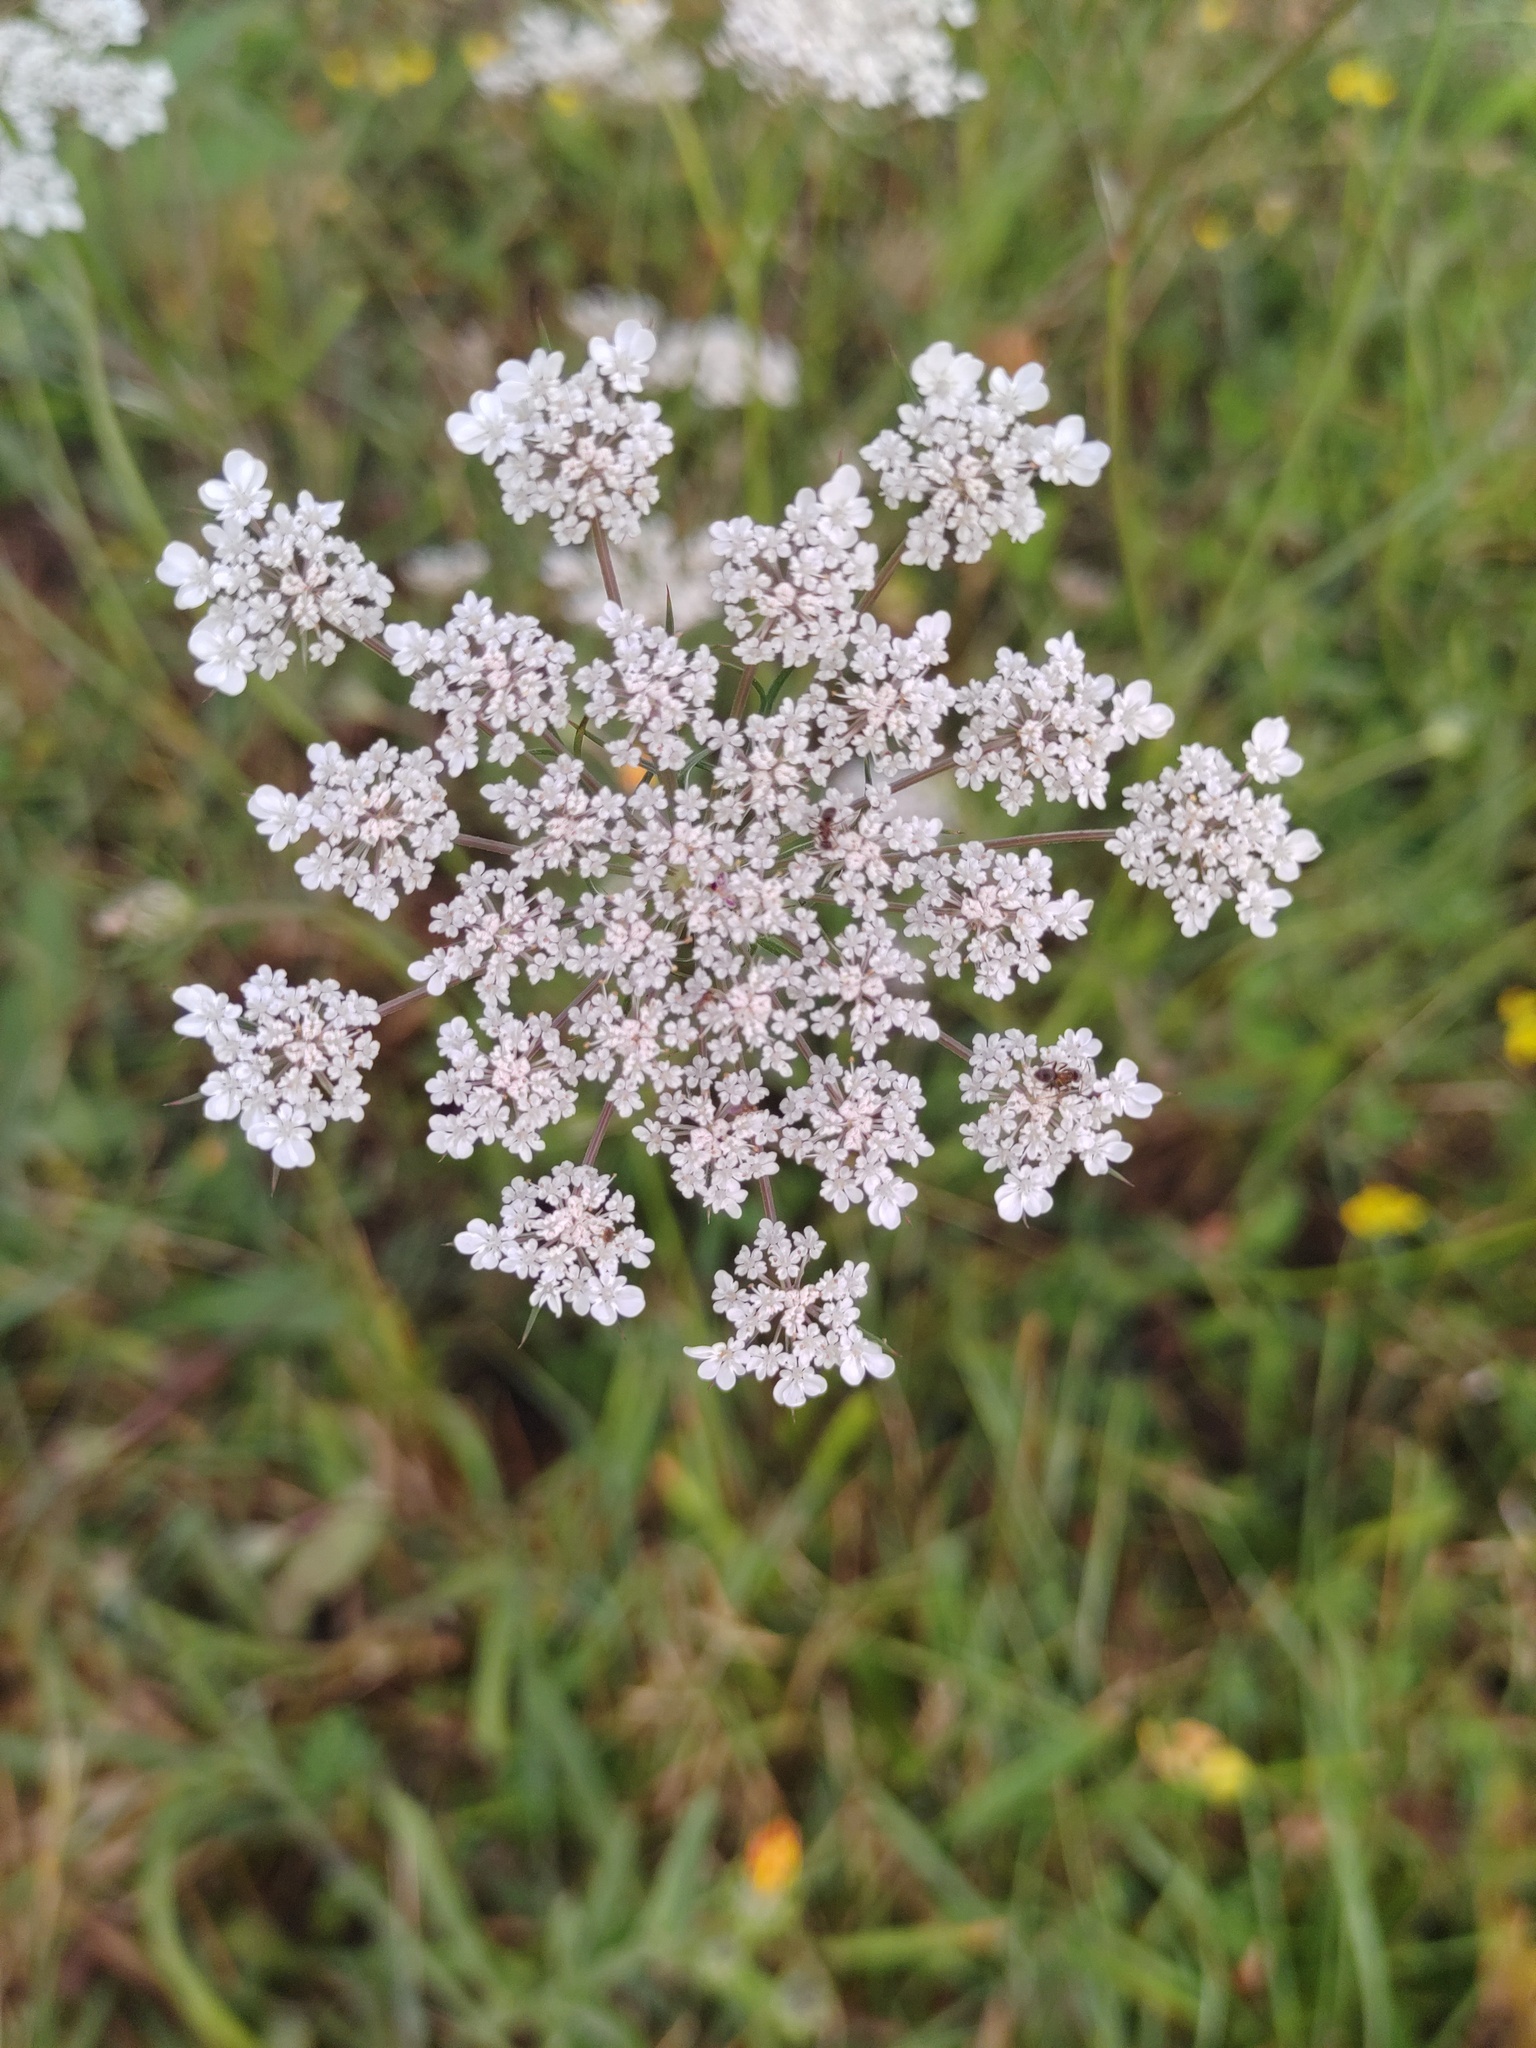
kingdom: Plantae
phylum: Tracheophyta
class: Magnoliopsida
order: Apiales
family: Apiaceae
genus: Daucus
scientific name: Daucus carota
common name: Wild carrot
